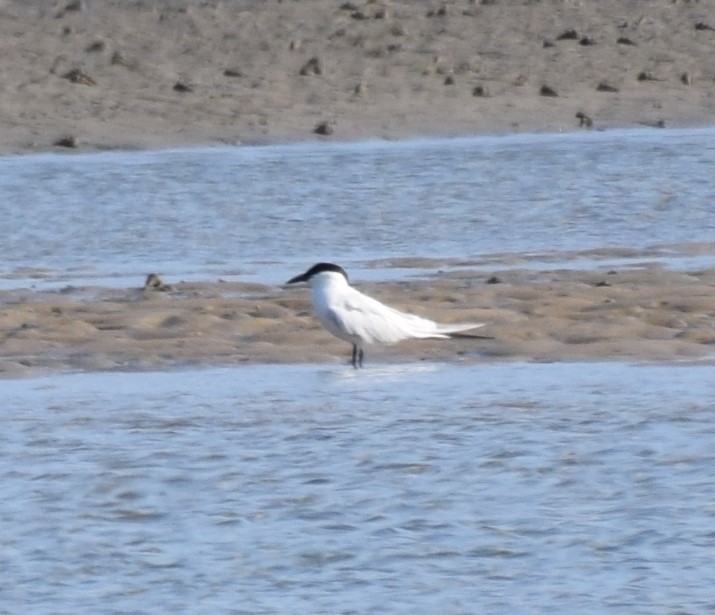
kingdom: Animalia
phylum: Chordata
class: Aves
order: Charadriiformes
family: Laridae
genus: Gelochelidon
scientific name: Gelochelidon macrotarsa
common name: Australian tern
